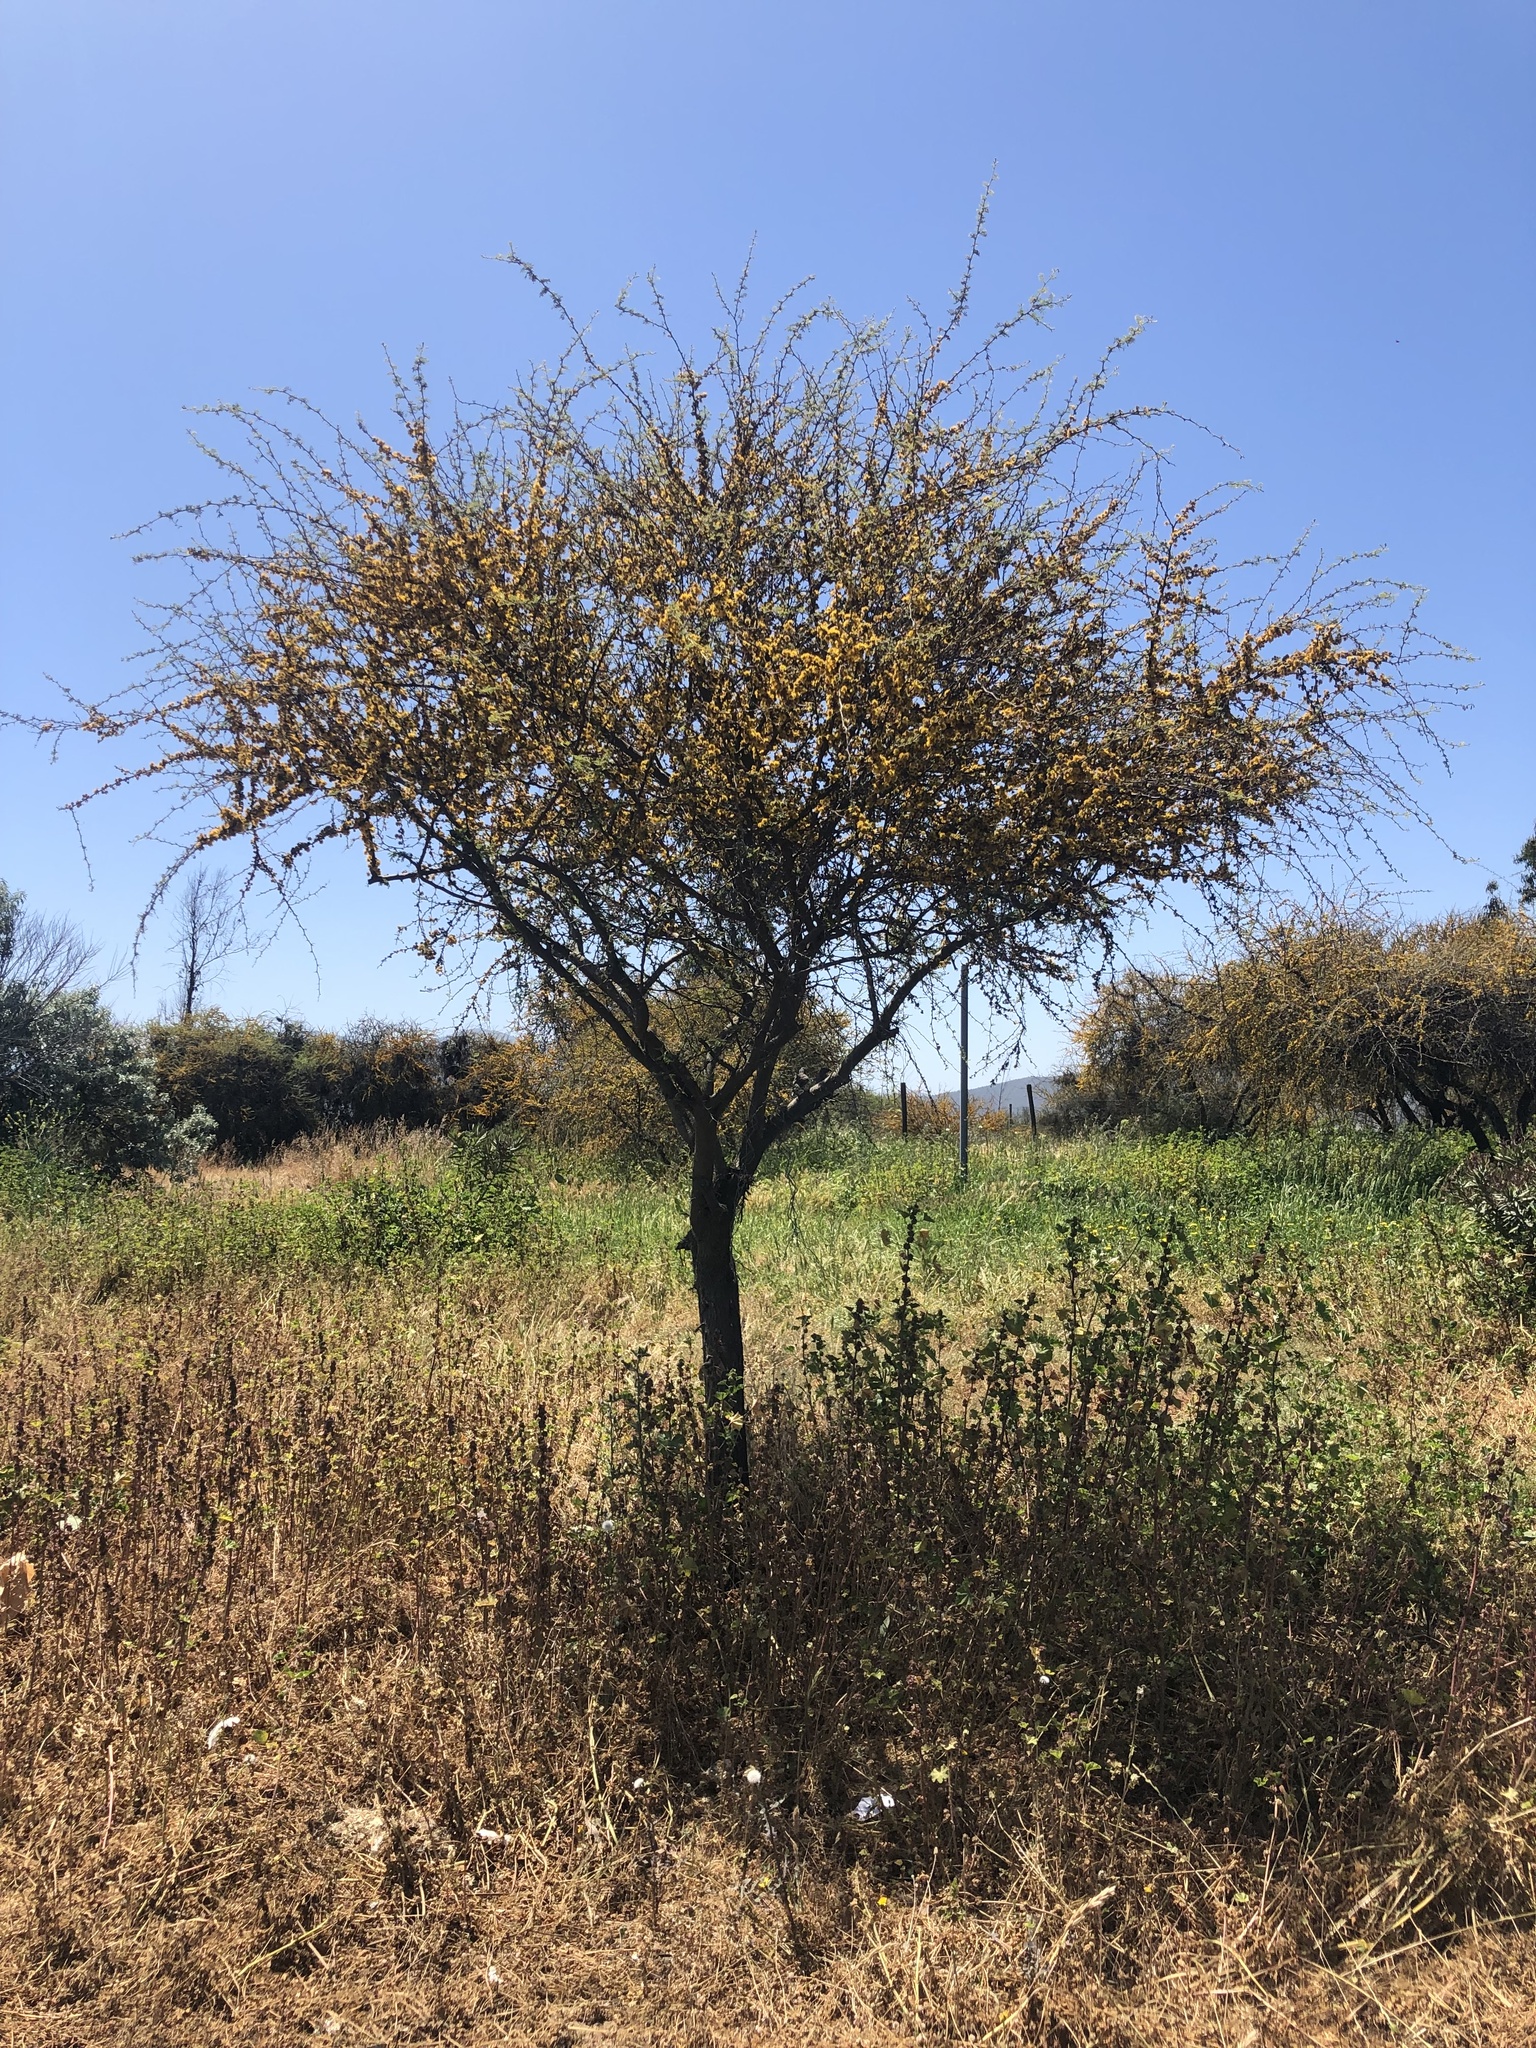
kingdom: Plantae
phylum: Tracheophyta
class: Magnoliopsida
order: Fabales
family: Fabaceae
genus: Vachellia
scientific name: Vachellia caven
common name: Roman cassie
